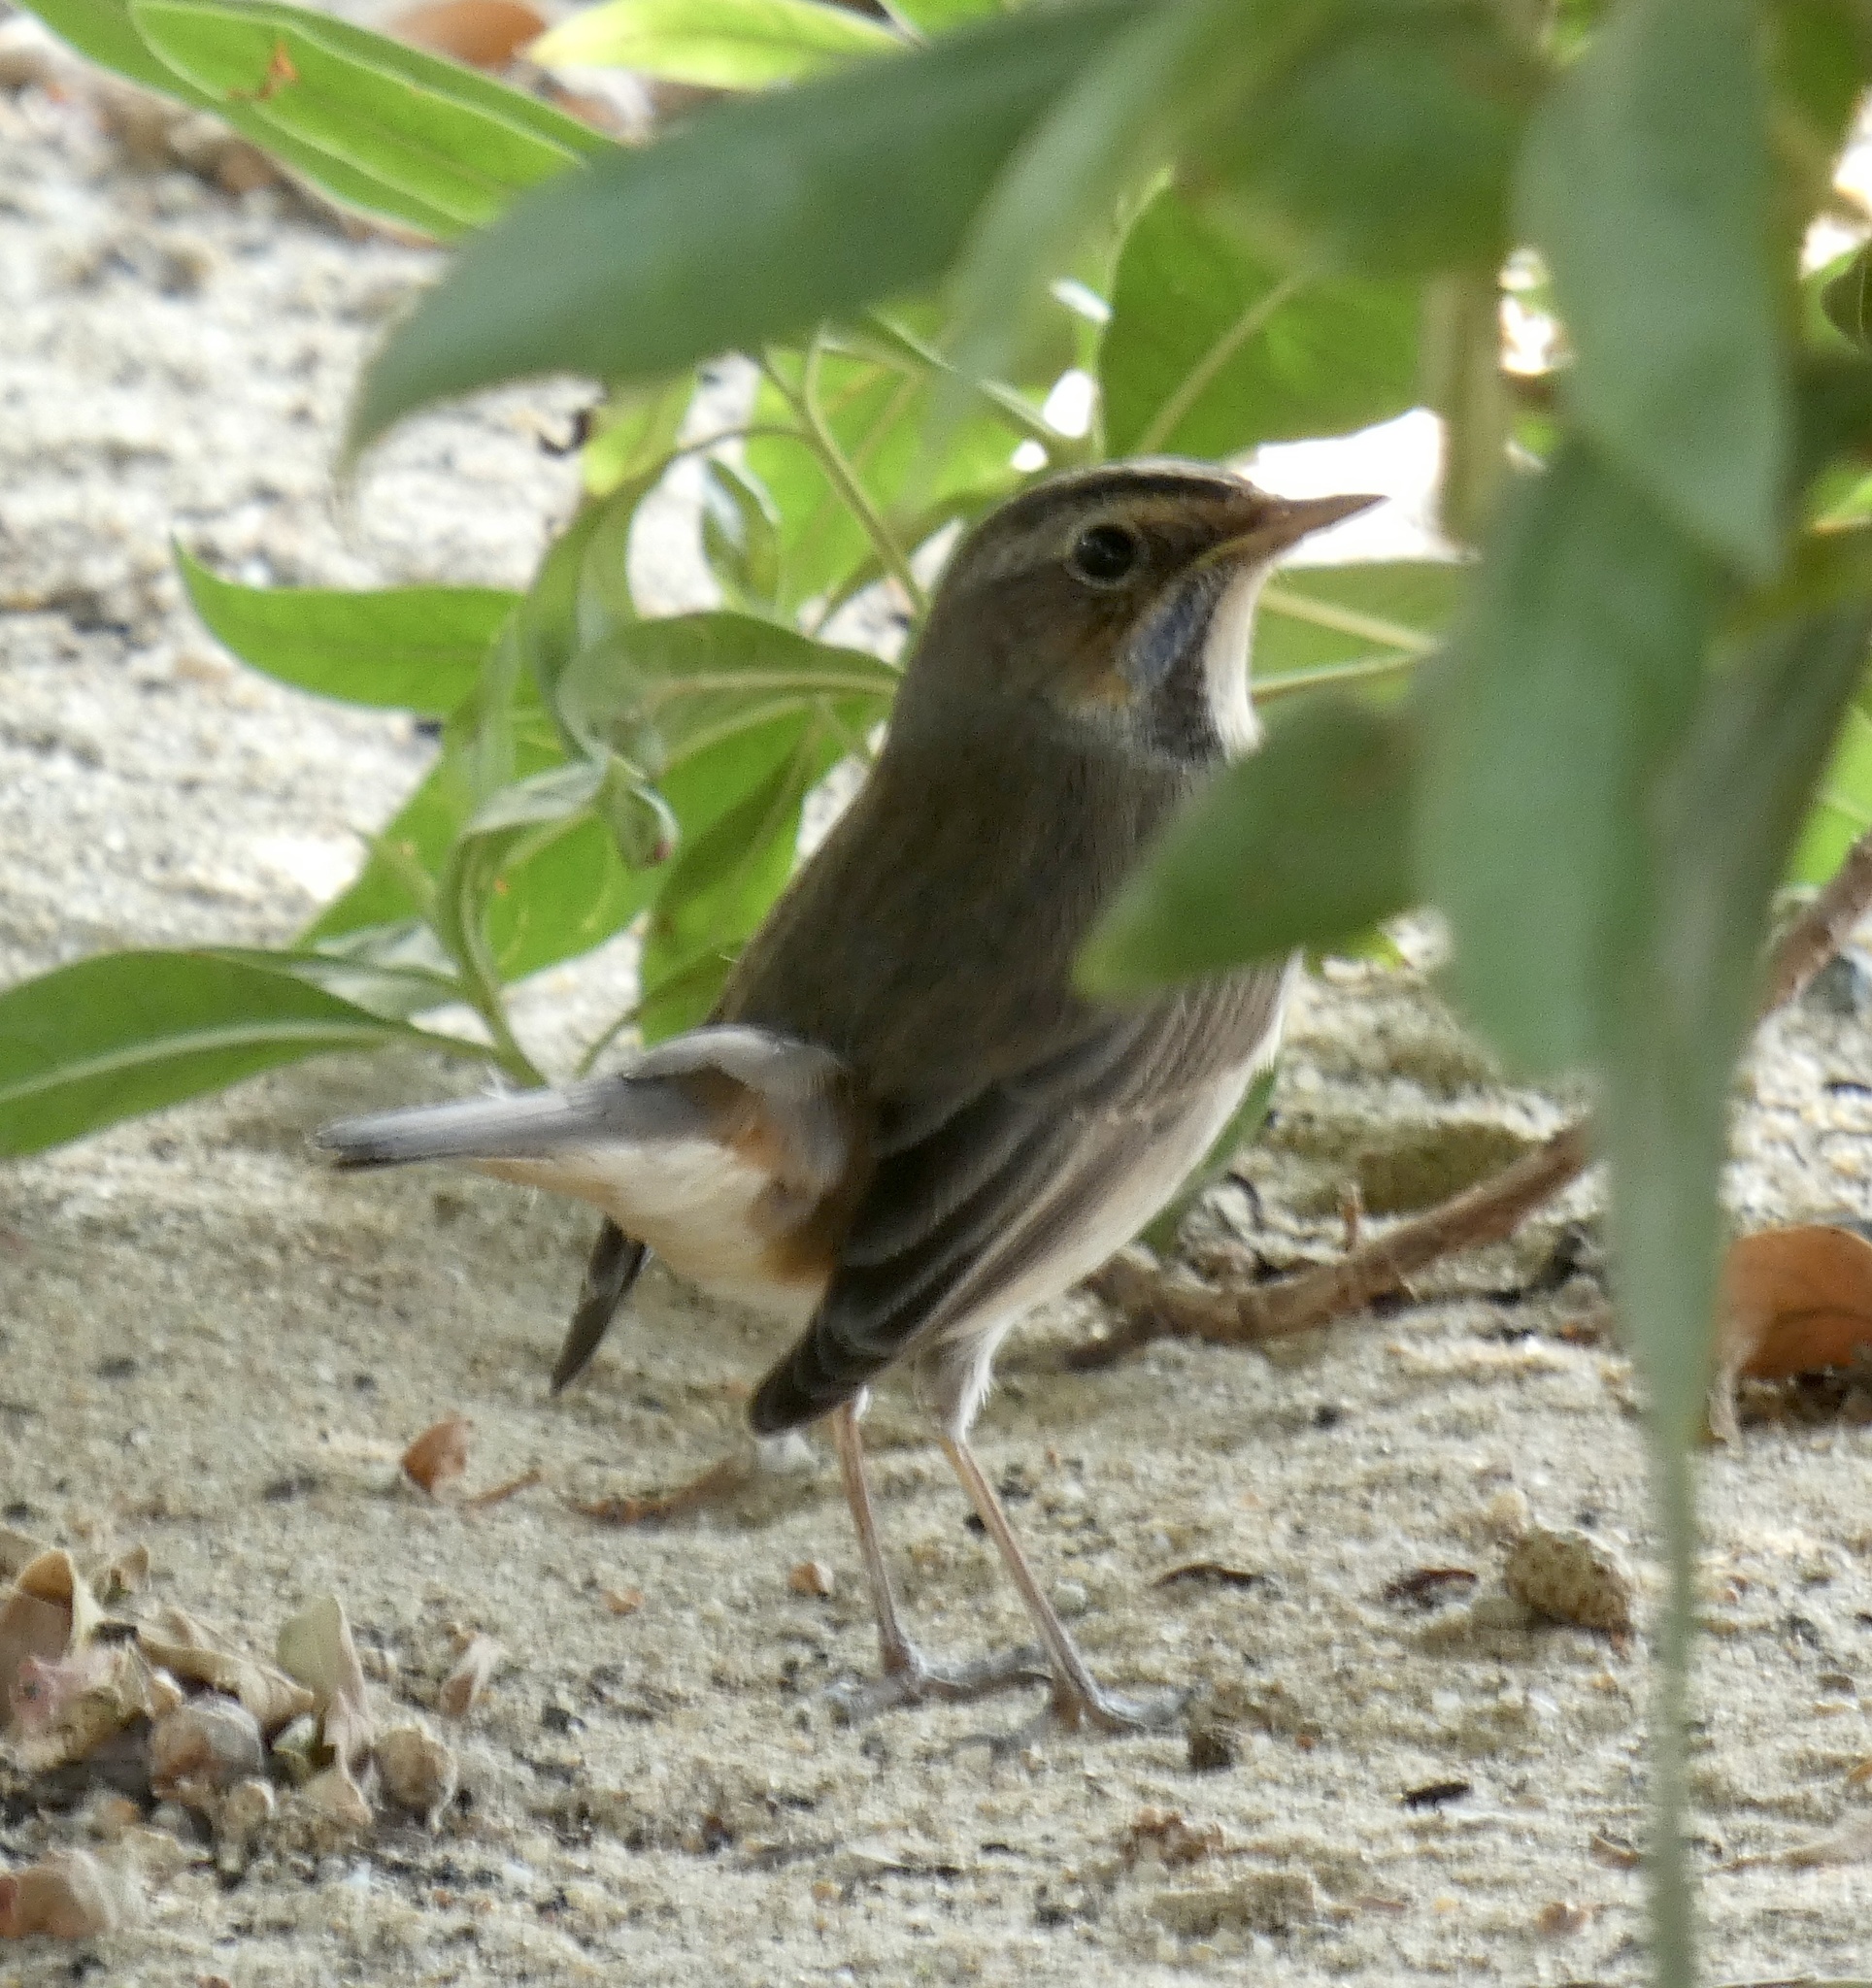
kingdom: Animalia
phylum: Chordata
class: Aves
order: Passeriformes
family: Muscicapidae
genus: Luscinia
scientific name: Luscinia svecica
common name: Bluethroat
